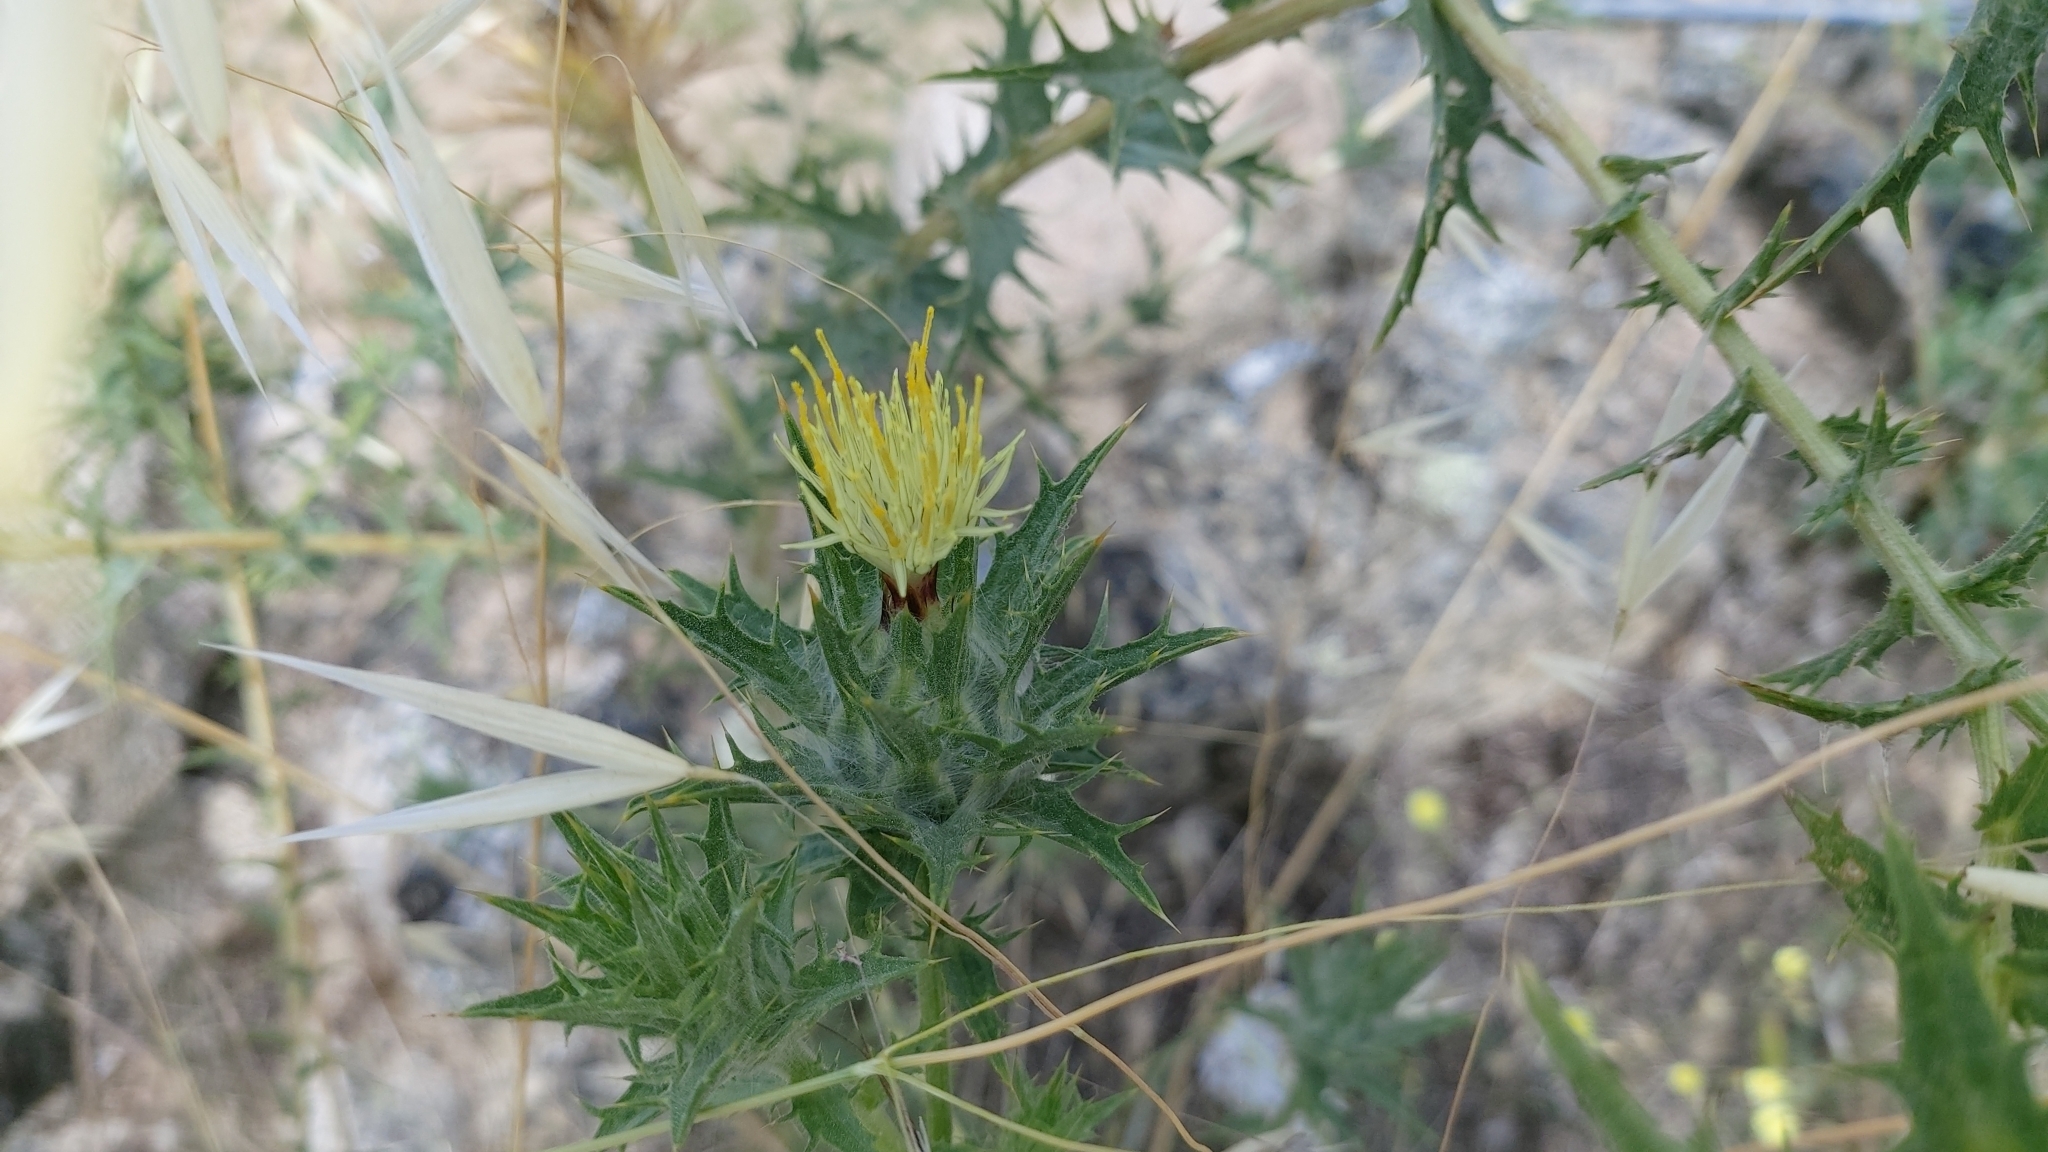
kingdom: Plantae
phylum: Tracheophyta
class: Magnoliopsida
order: Asterales
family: Asteraceae
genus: Carthamus
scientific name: Carthamus lanatus
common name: Downy safflower
